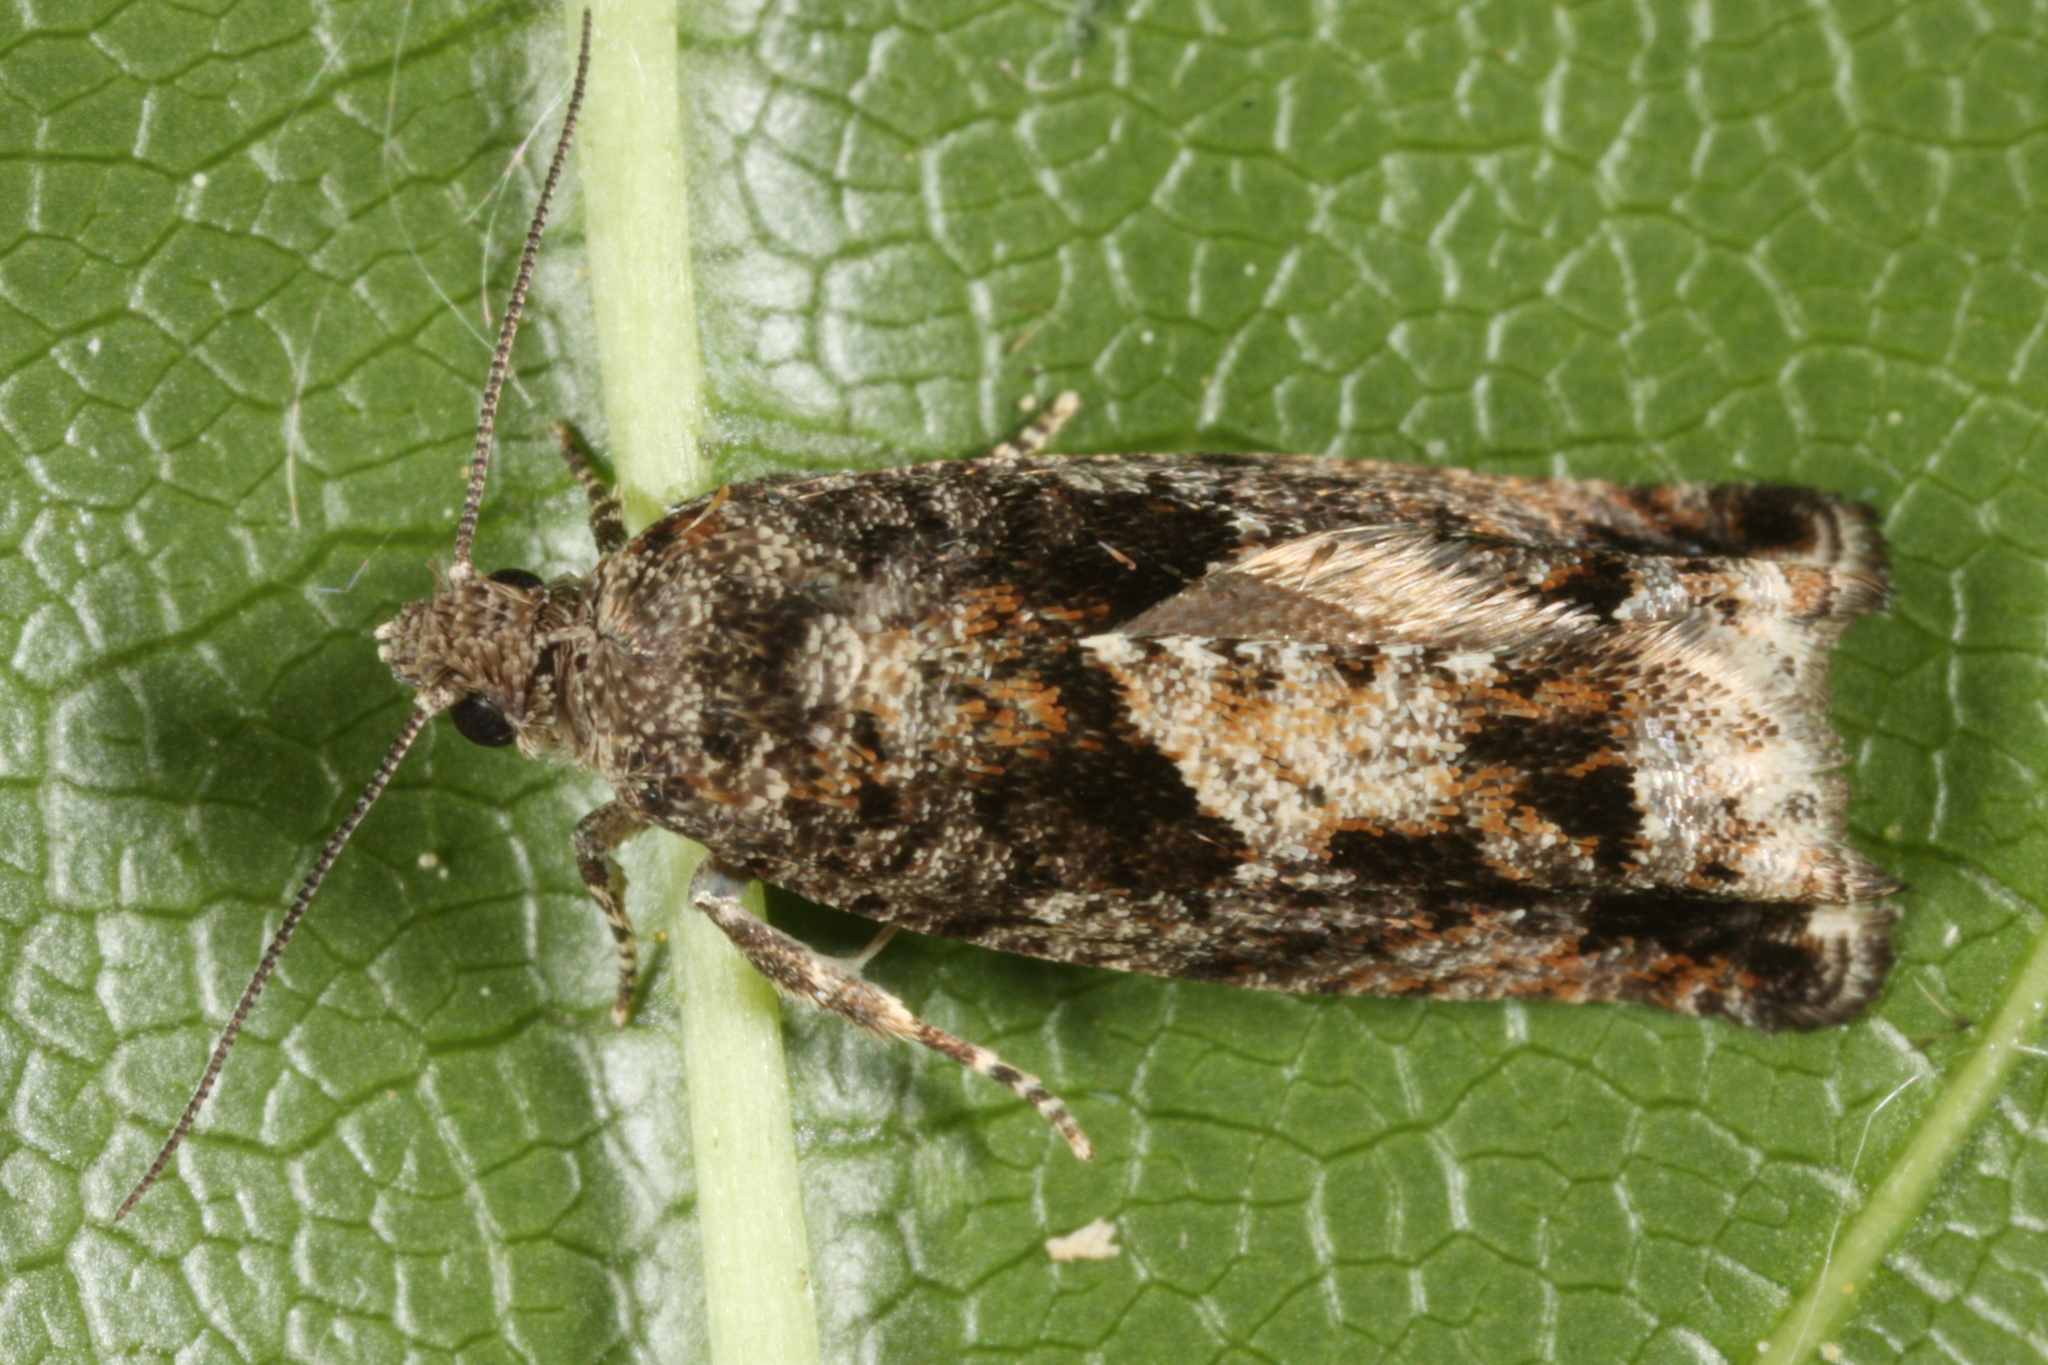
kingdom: Animalia
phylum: Arthropoda
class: Insecta
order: Lepidoptera
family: Tortricidae
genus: Epinotia
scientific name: Epinotia immundana
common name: Common birch bell
